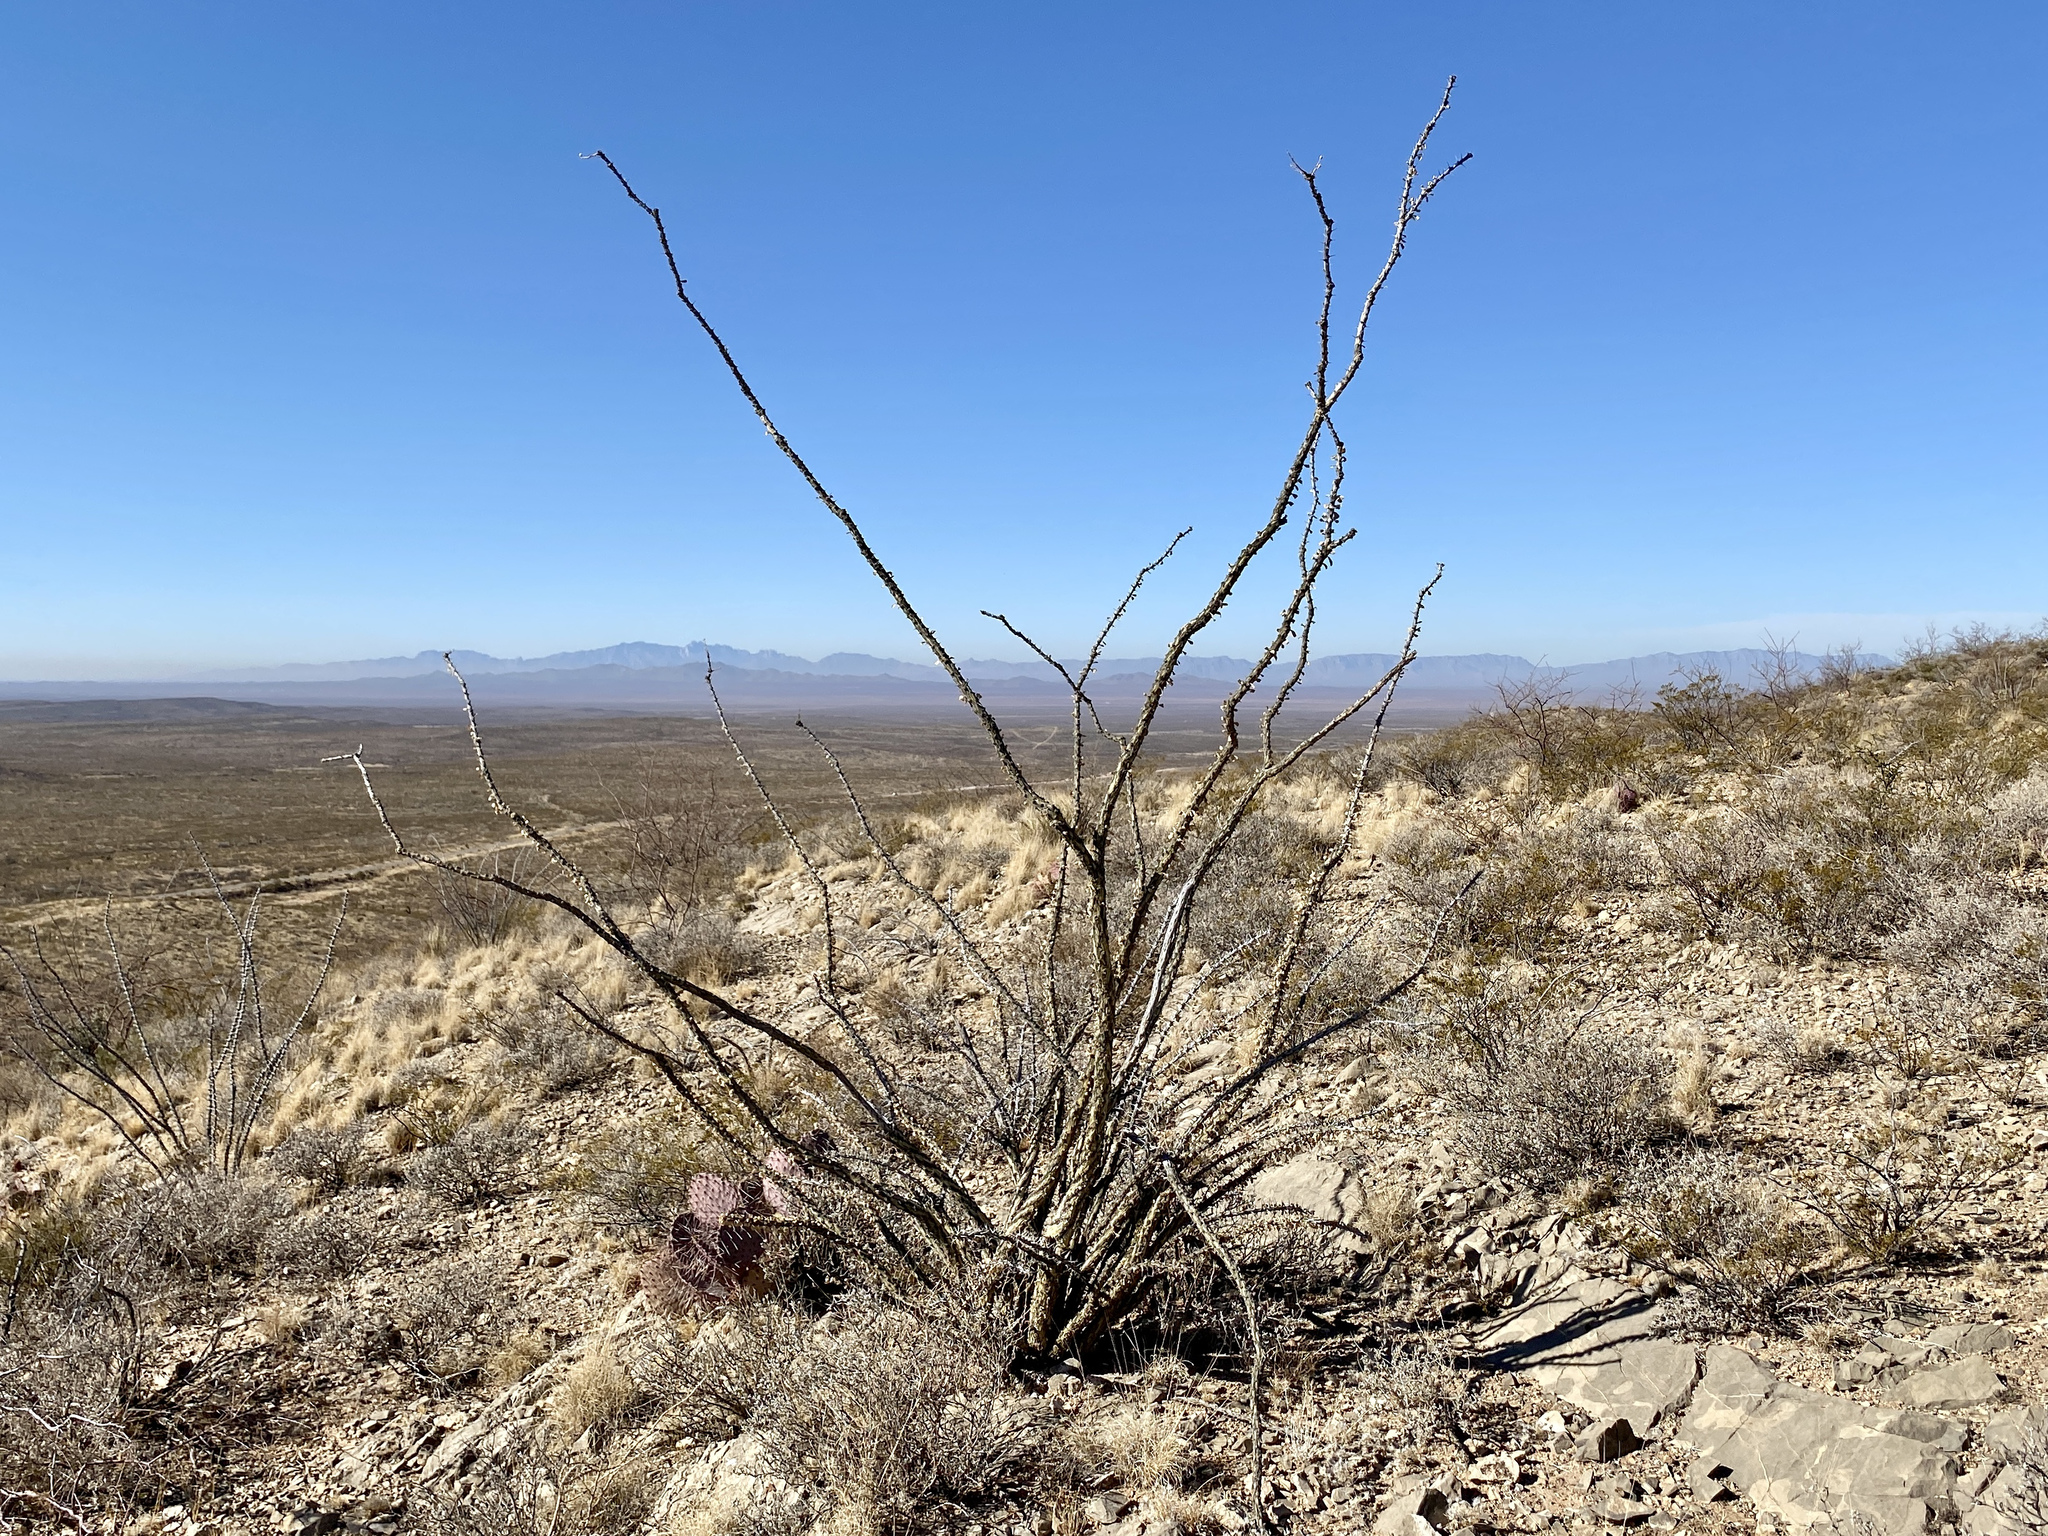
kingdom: Plantae
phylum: Tracheophyta
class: Magnoliopsida
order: Ericales
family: Fouquieriaceae
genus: Fouquieria
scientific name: Fouquieria splendens
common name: Vine-cactus
